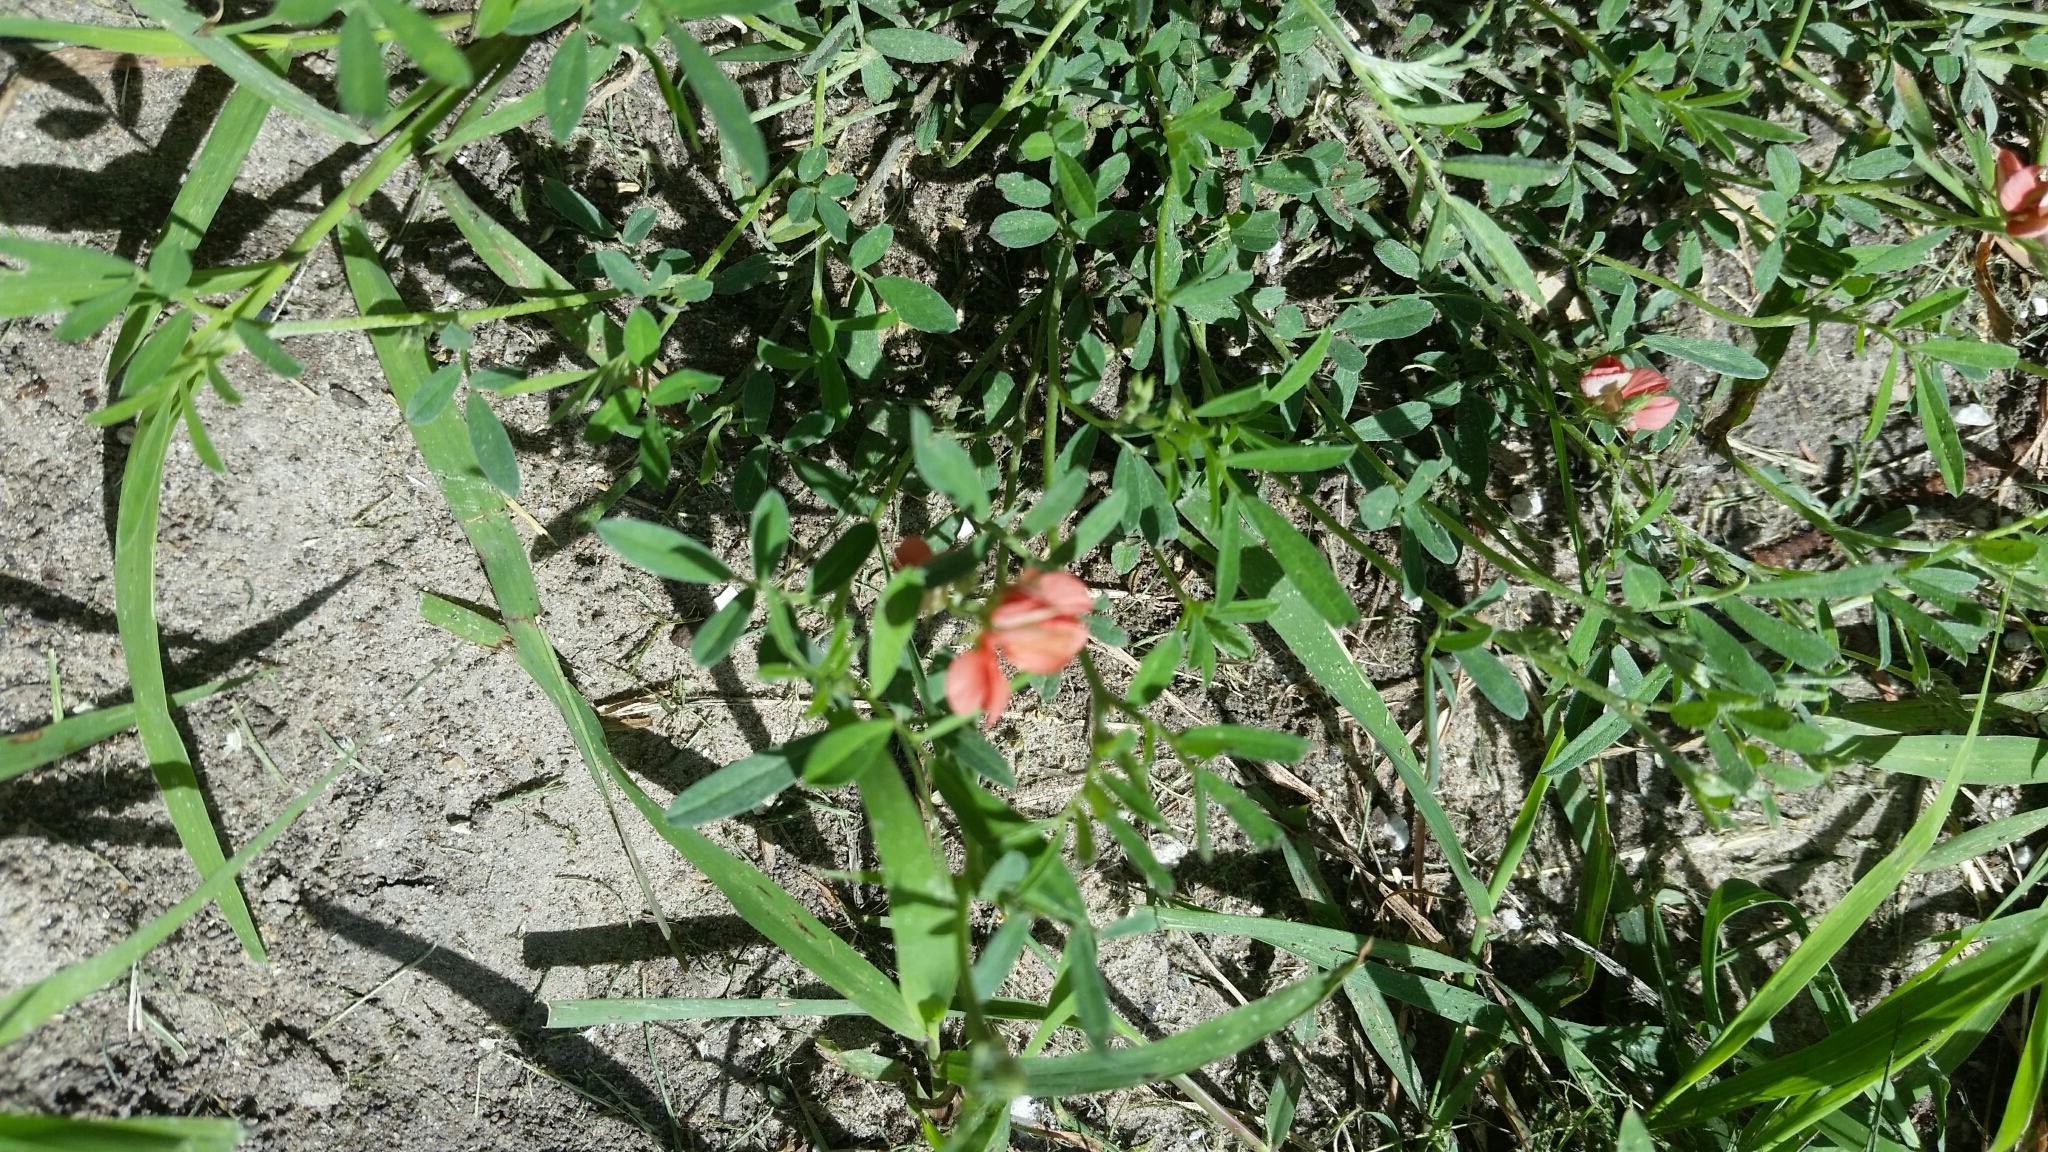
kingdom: Plantae
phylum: Tracheophyta
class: Magnoliopsida
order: Fabales
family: Fabaceae
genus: Indigofera
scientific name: Indigofera miniata
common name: Coast indigo
